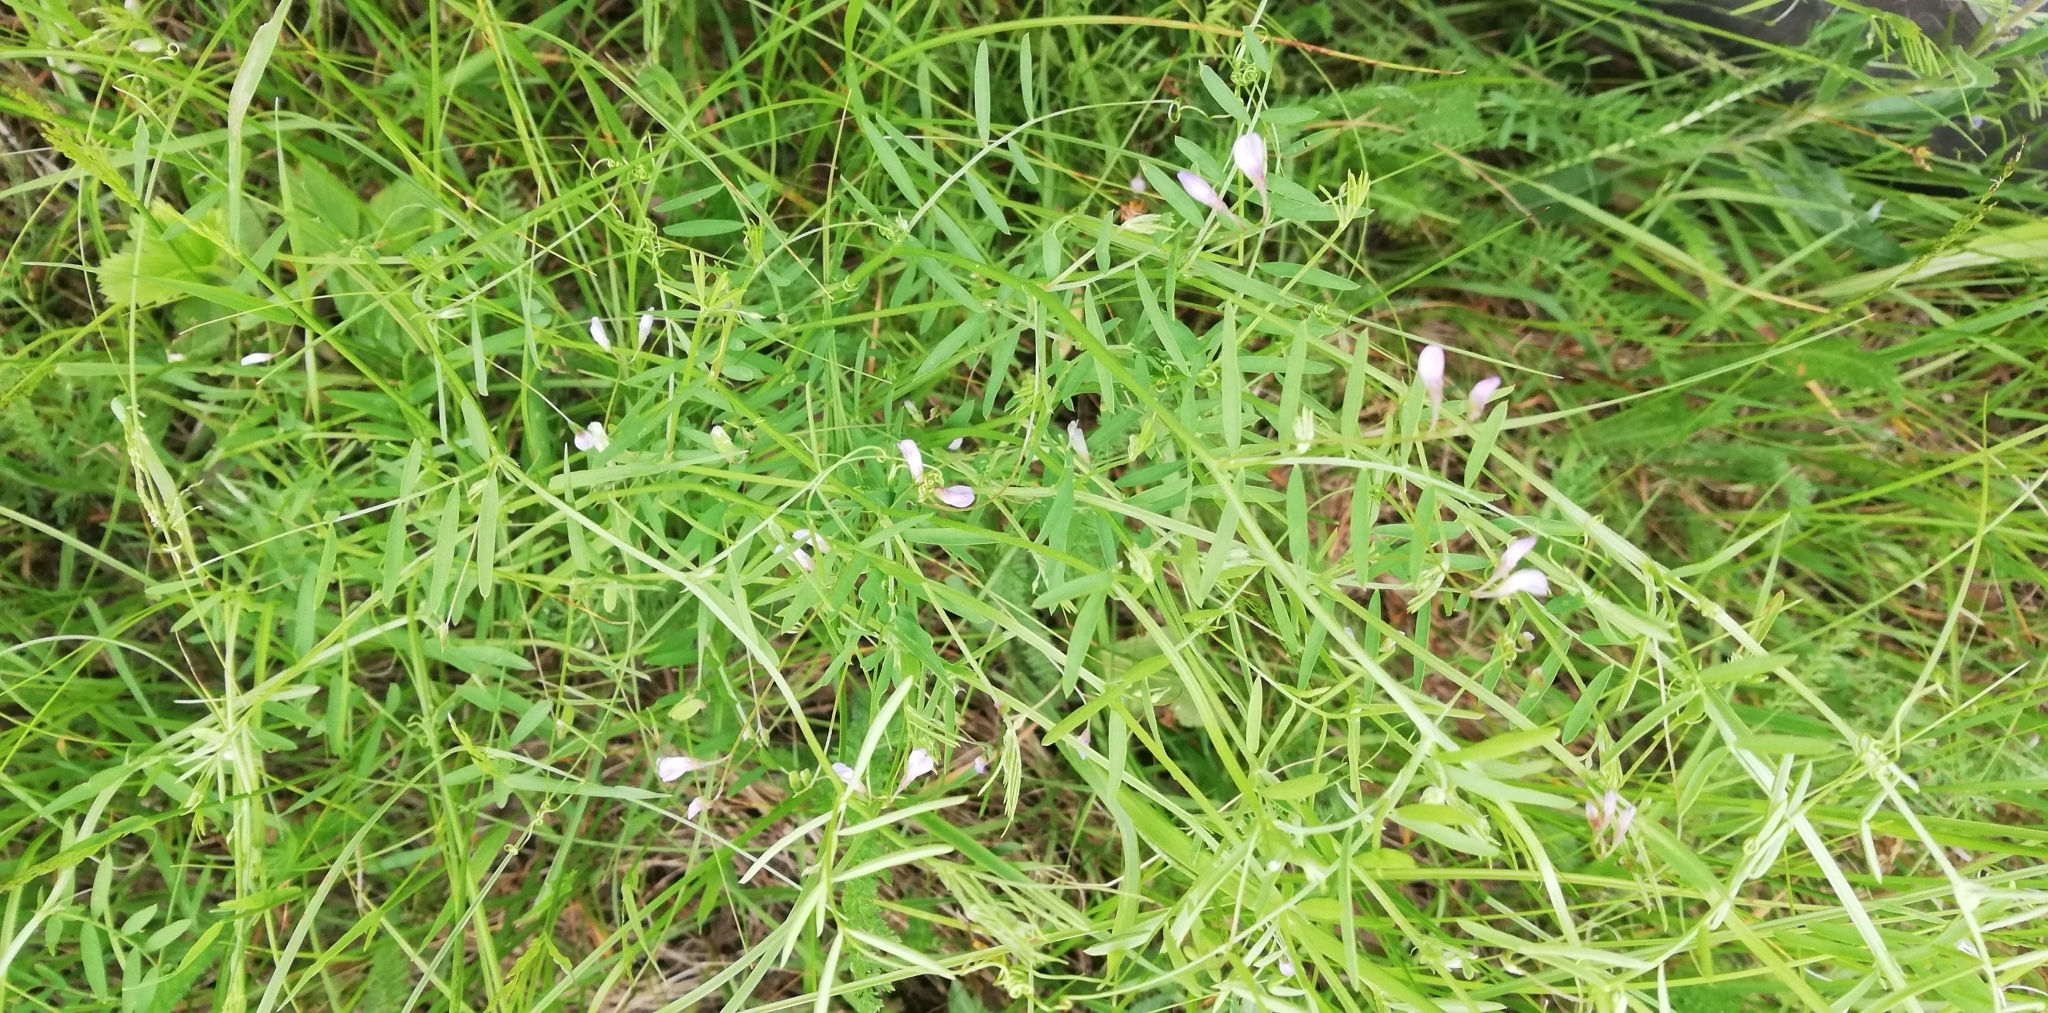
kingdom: Plantae
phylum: Tracheophyta
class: Magnoliopsida
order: Fabales
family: Fabaceae
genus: Vicia
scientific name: Vicia tetrasperma
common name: Smooth tare
